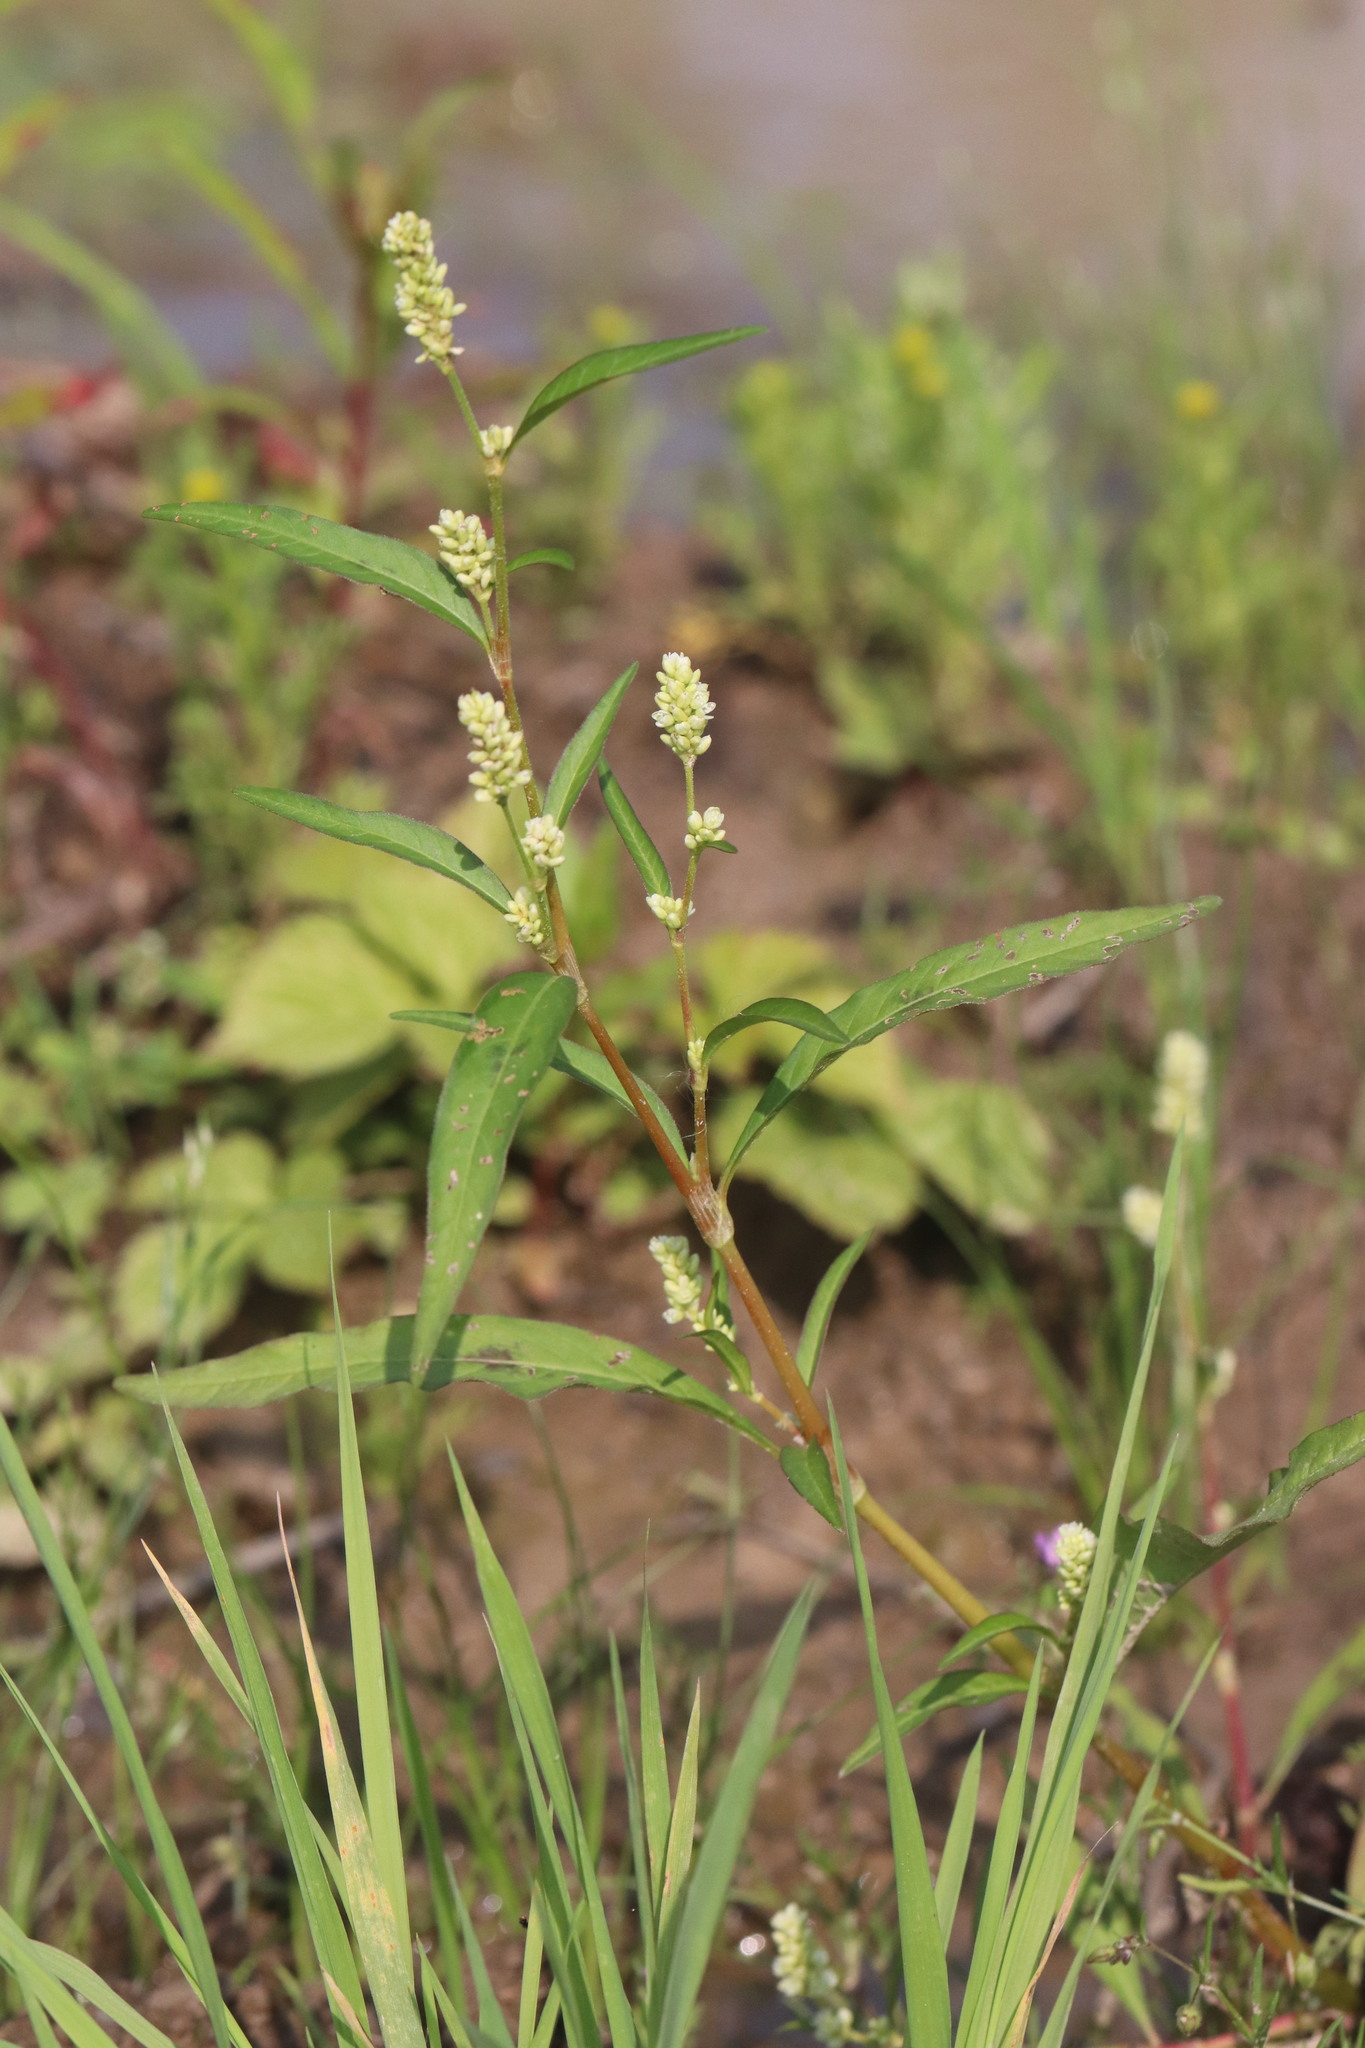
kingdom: Plantae
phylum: Tracheophyta
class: Magnoliopsida
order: Caryophyllales
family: Polygonaceae
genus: Persicaria
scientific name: Persicaria lapathifolia
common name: Curlytop knotweed
